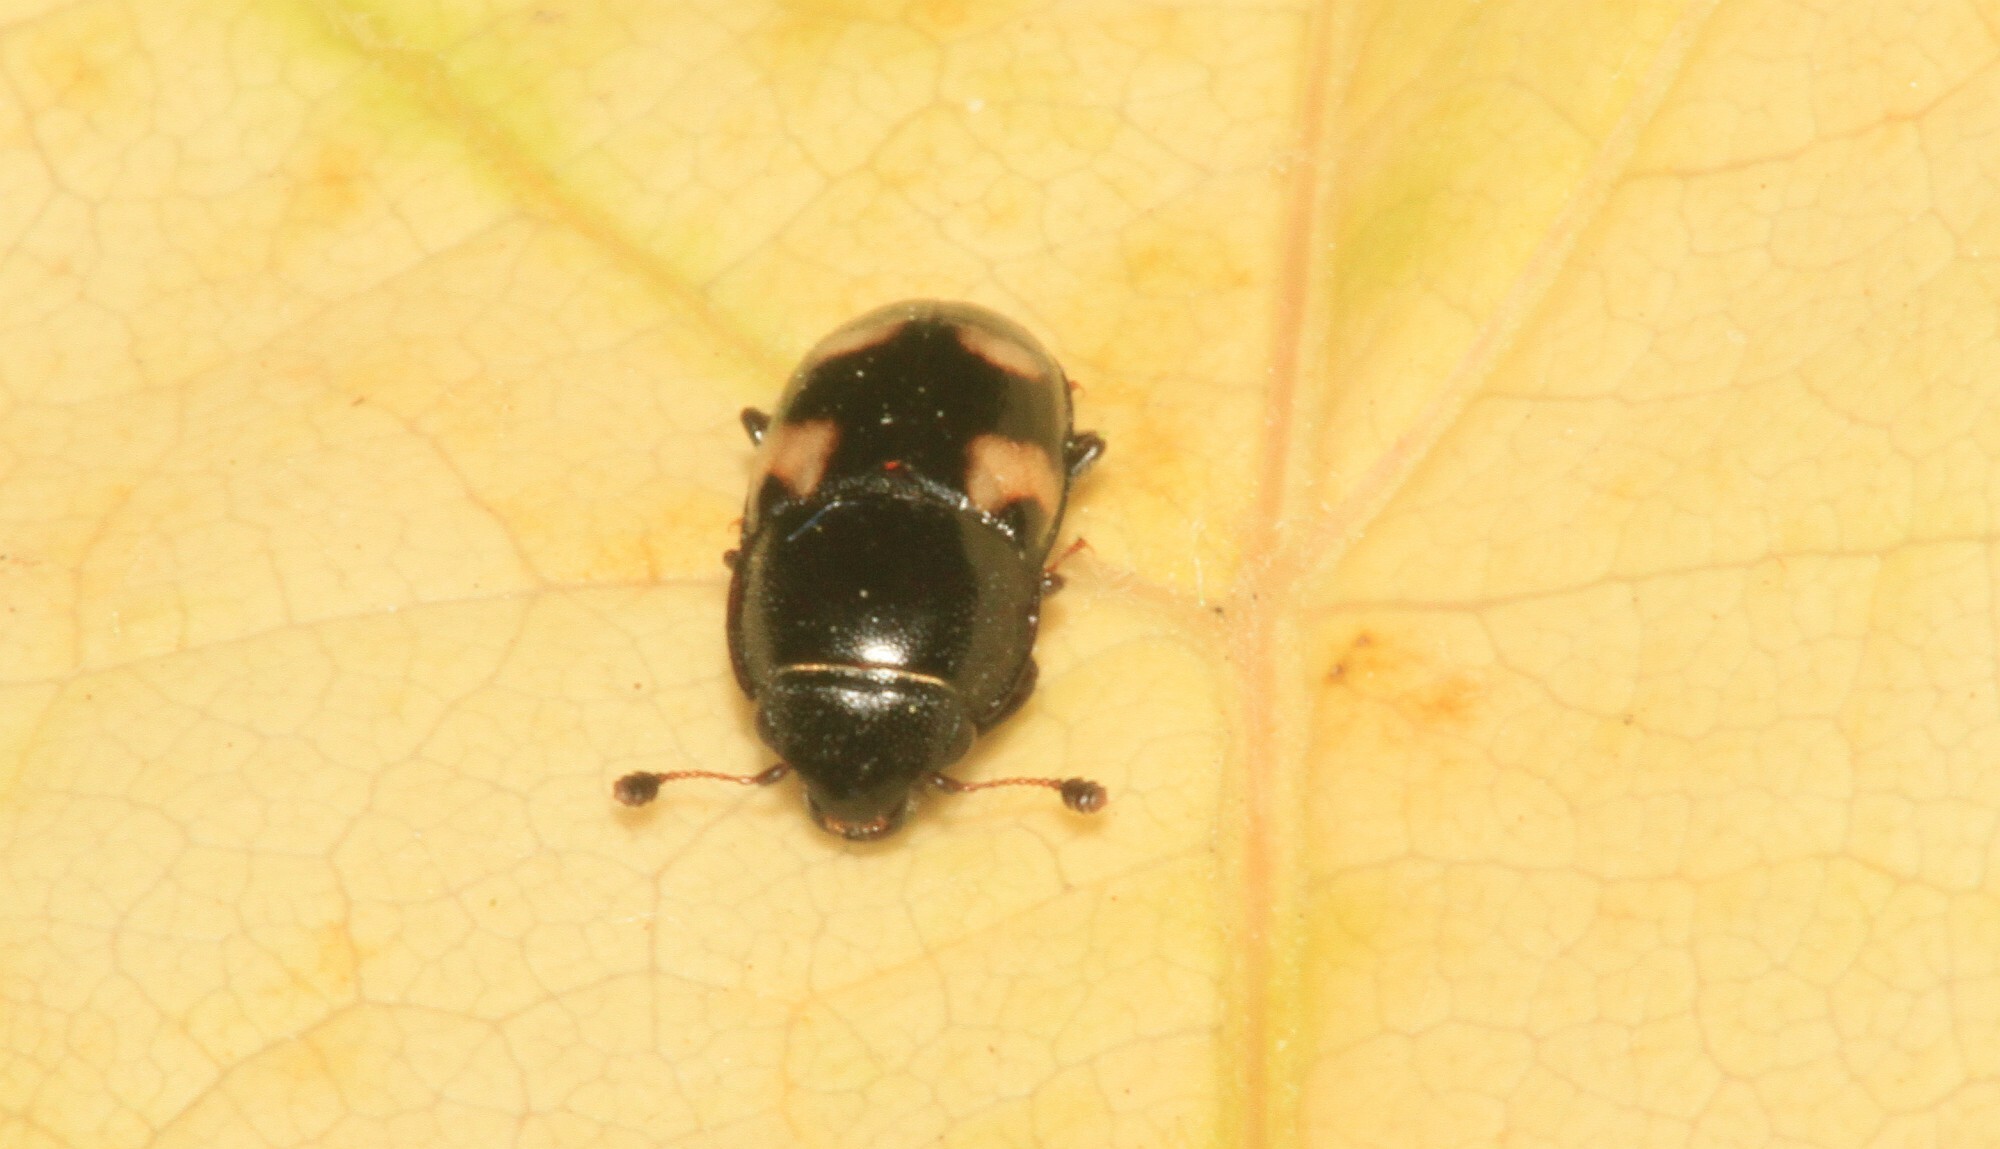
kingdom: Animalia
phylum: Arthropoda
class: Insecta
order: Coleoptera
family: Nitidulidae
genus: Glischrochilus
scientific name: Glischrochilus quadrisignatus
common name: Picnic beetle
